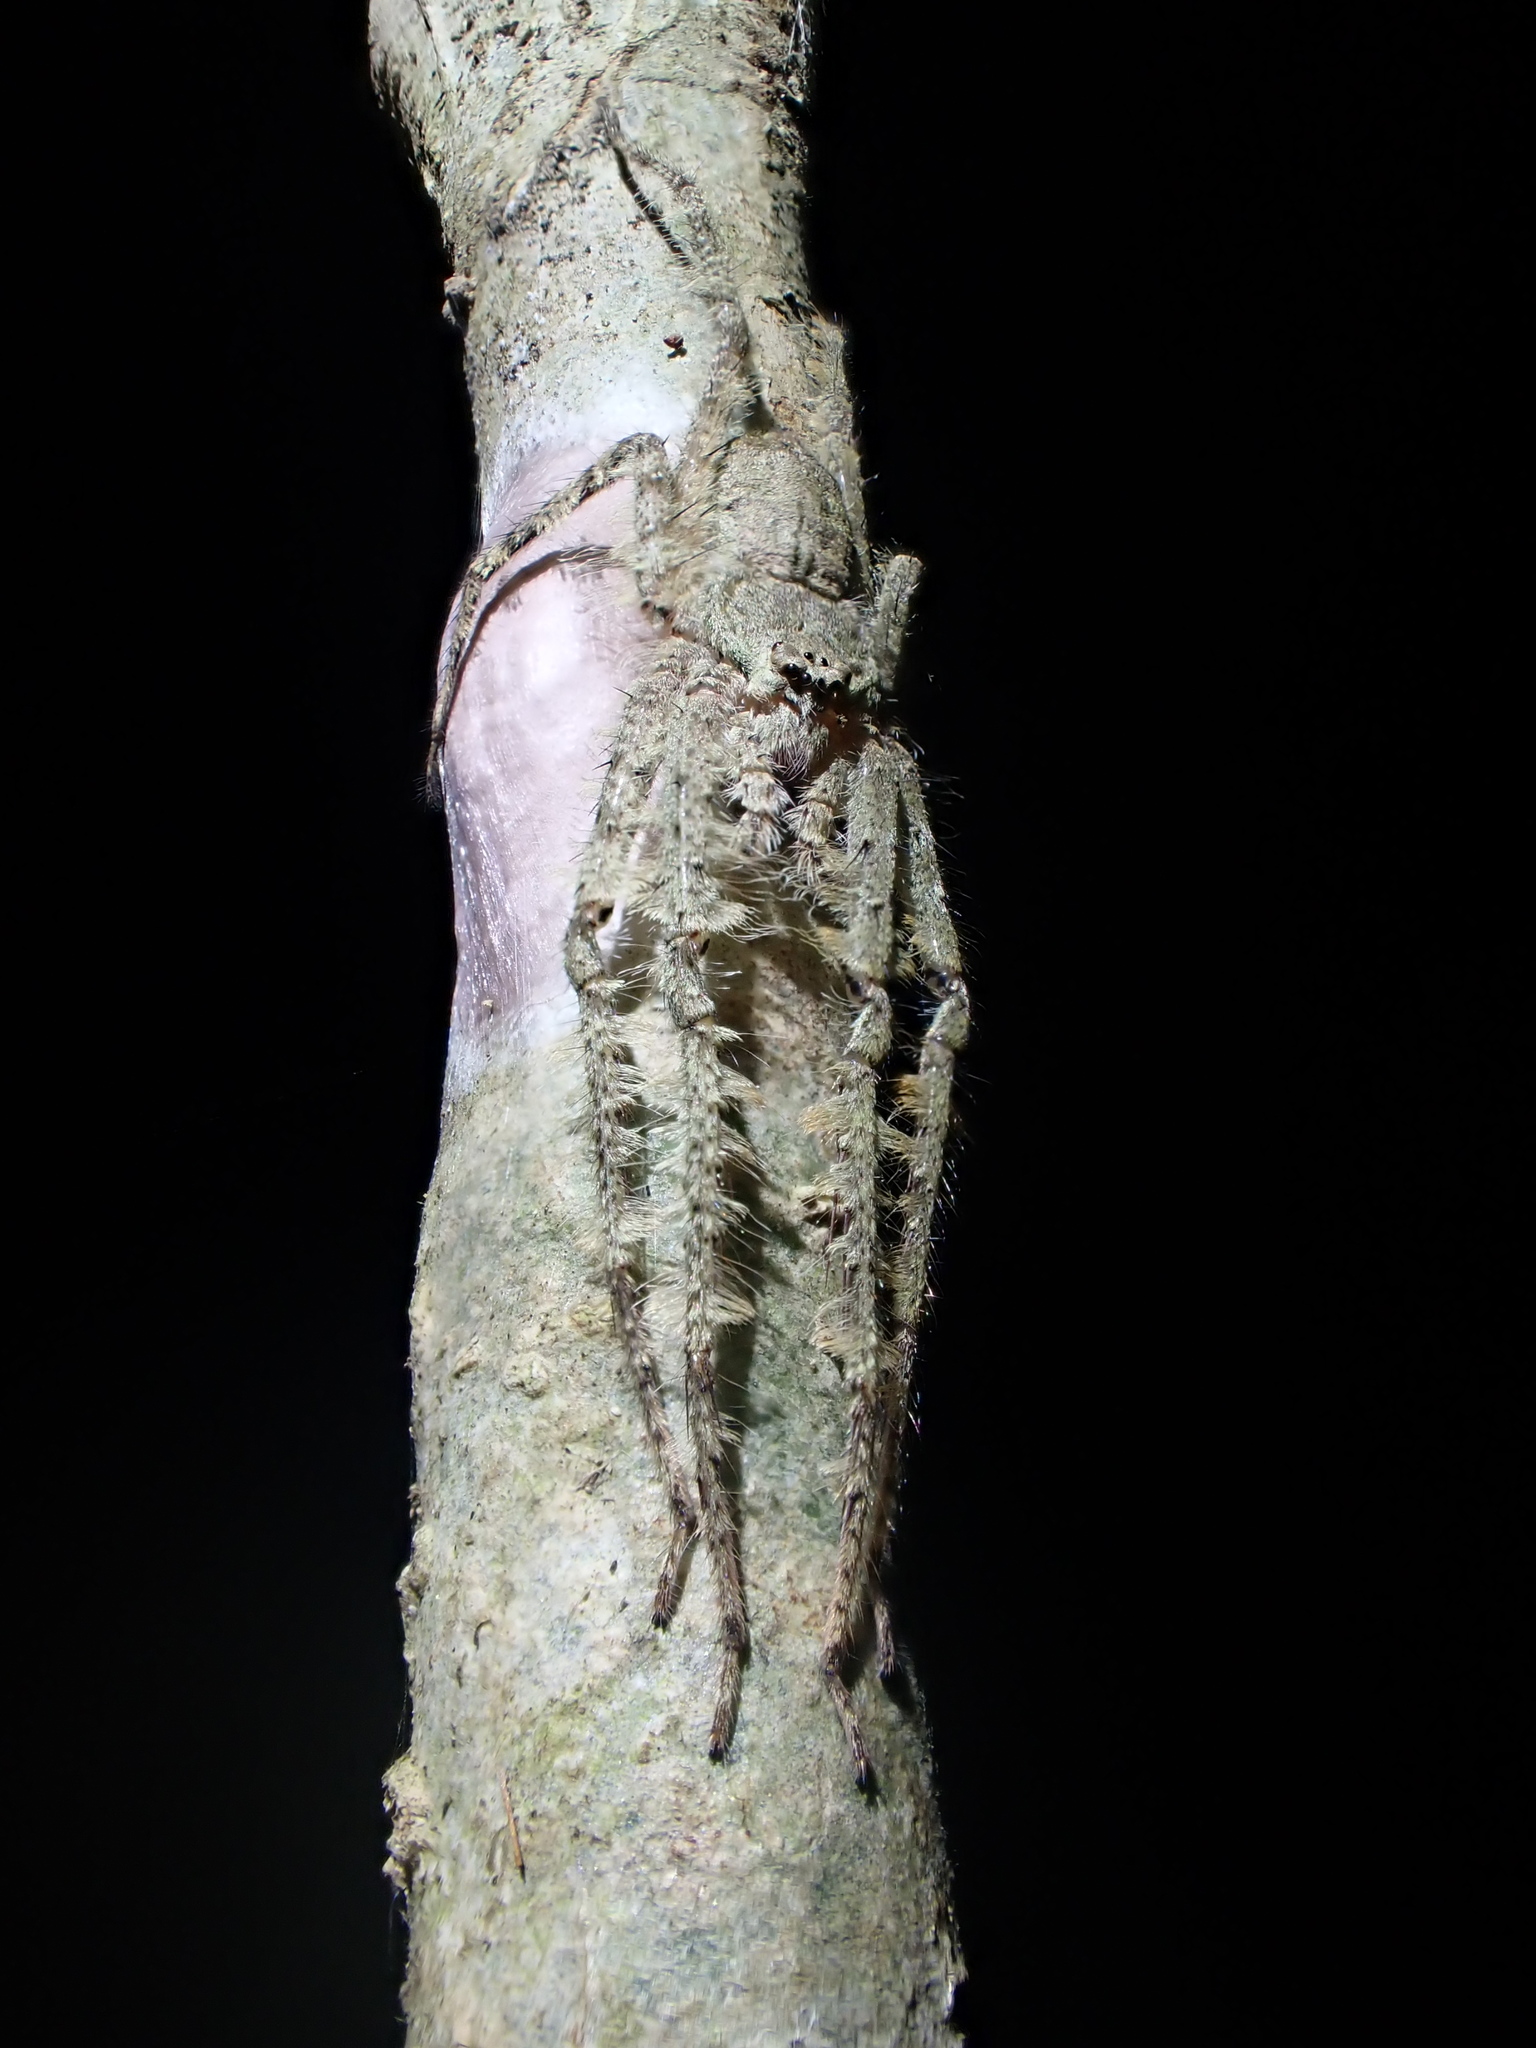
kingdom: Animalia
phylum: Arthropoda
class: Arachnida
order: Araneae
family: Sparassidae
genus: Pandercetes
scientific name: Pandercetes gracilis
